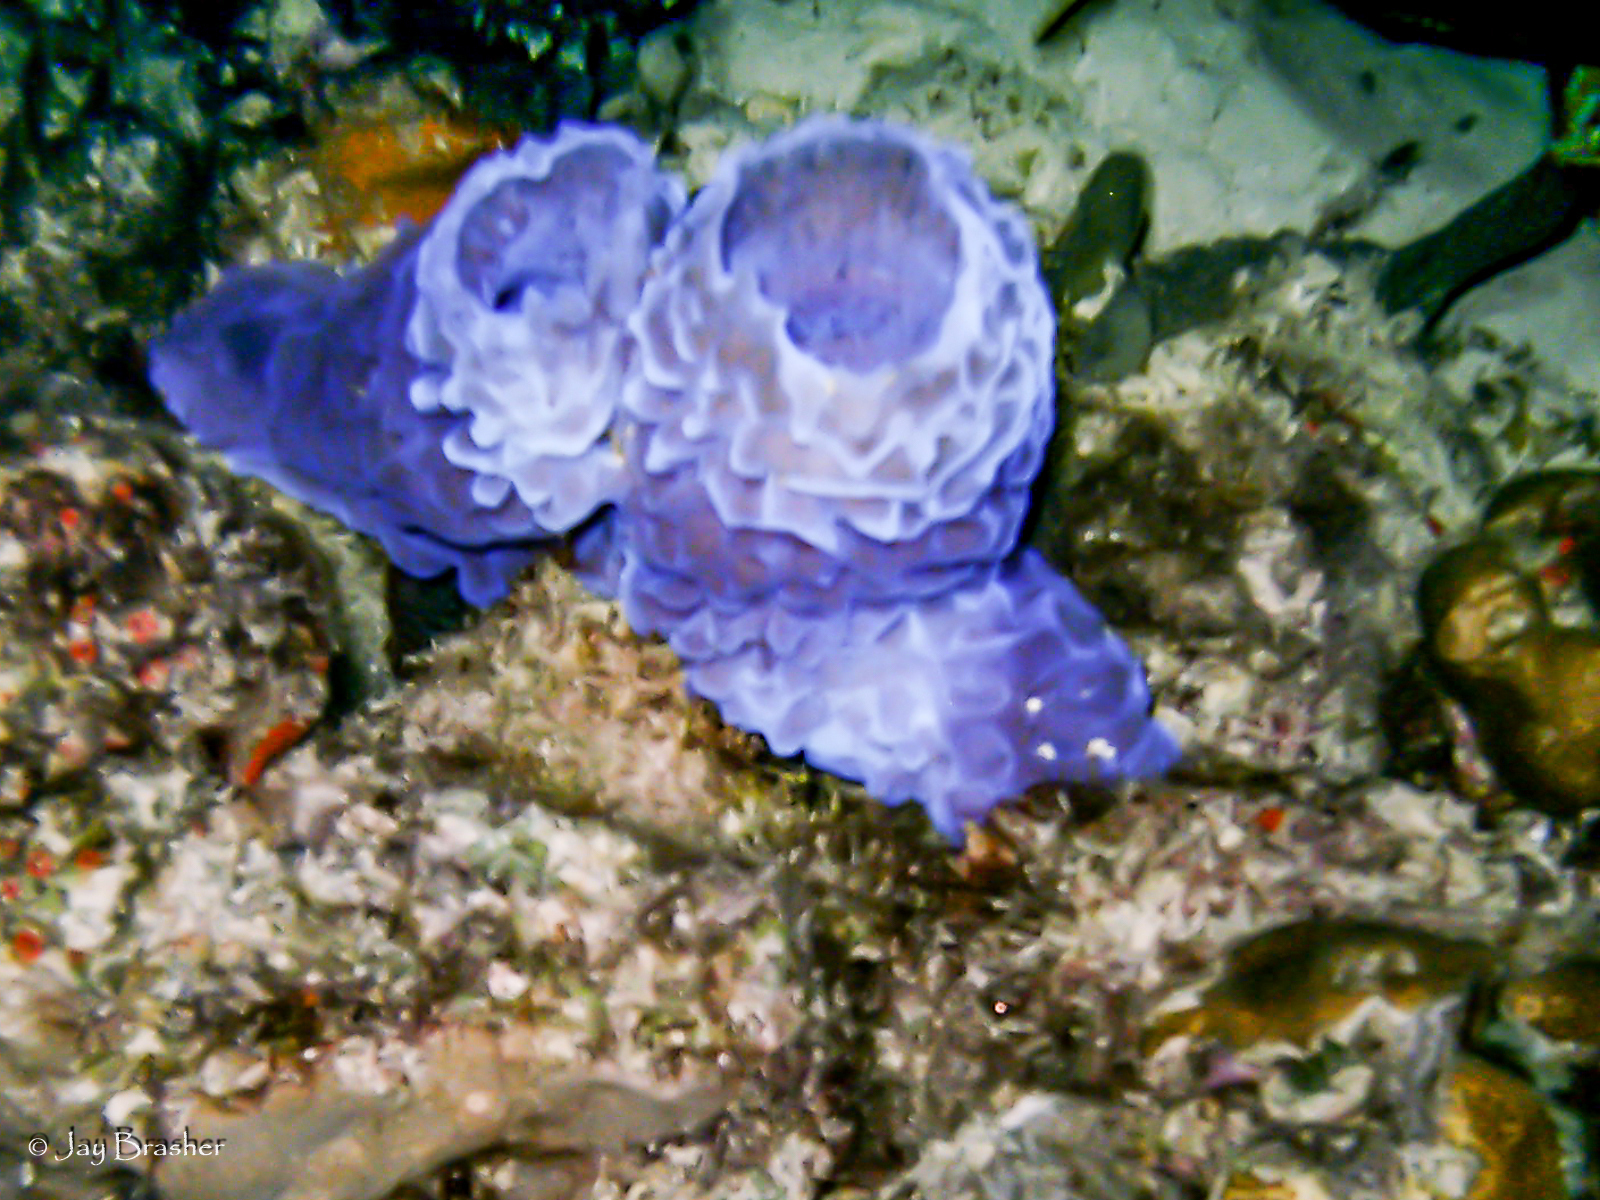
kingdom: Animalia
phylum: Porifera
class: Demospongiae
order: Haplosclerida
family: Callyspongiidae
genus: Callyspongia
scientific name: Callyspongia plicifera
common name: Azure vase sponge
